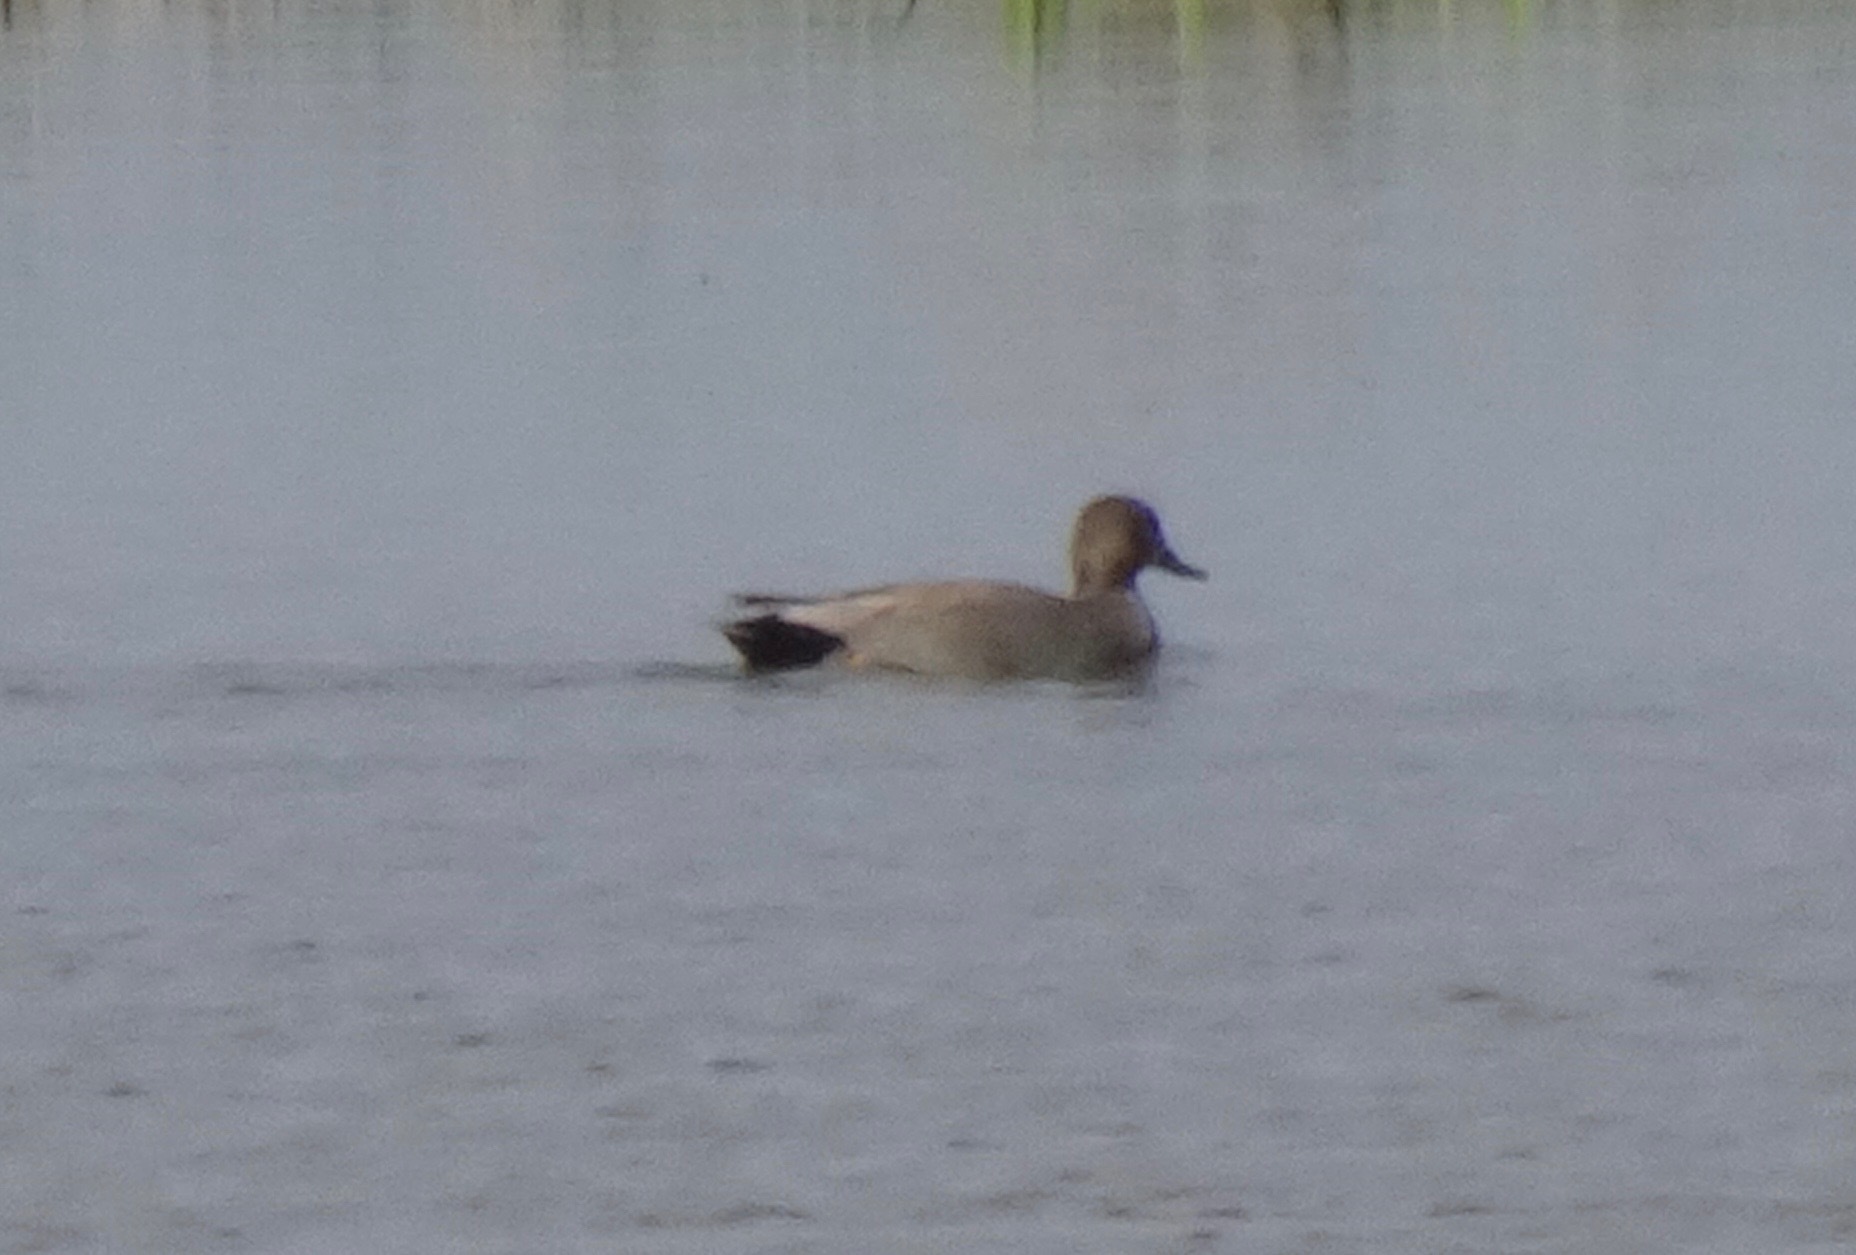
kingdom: Animalia
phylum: Chordata
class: Aves
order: Anseriformes
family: Anatidae
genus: Mareca
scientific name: Mareca strepera
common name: Gadwall
